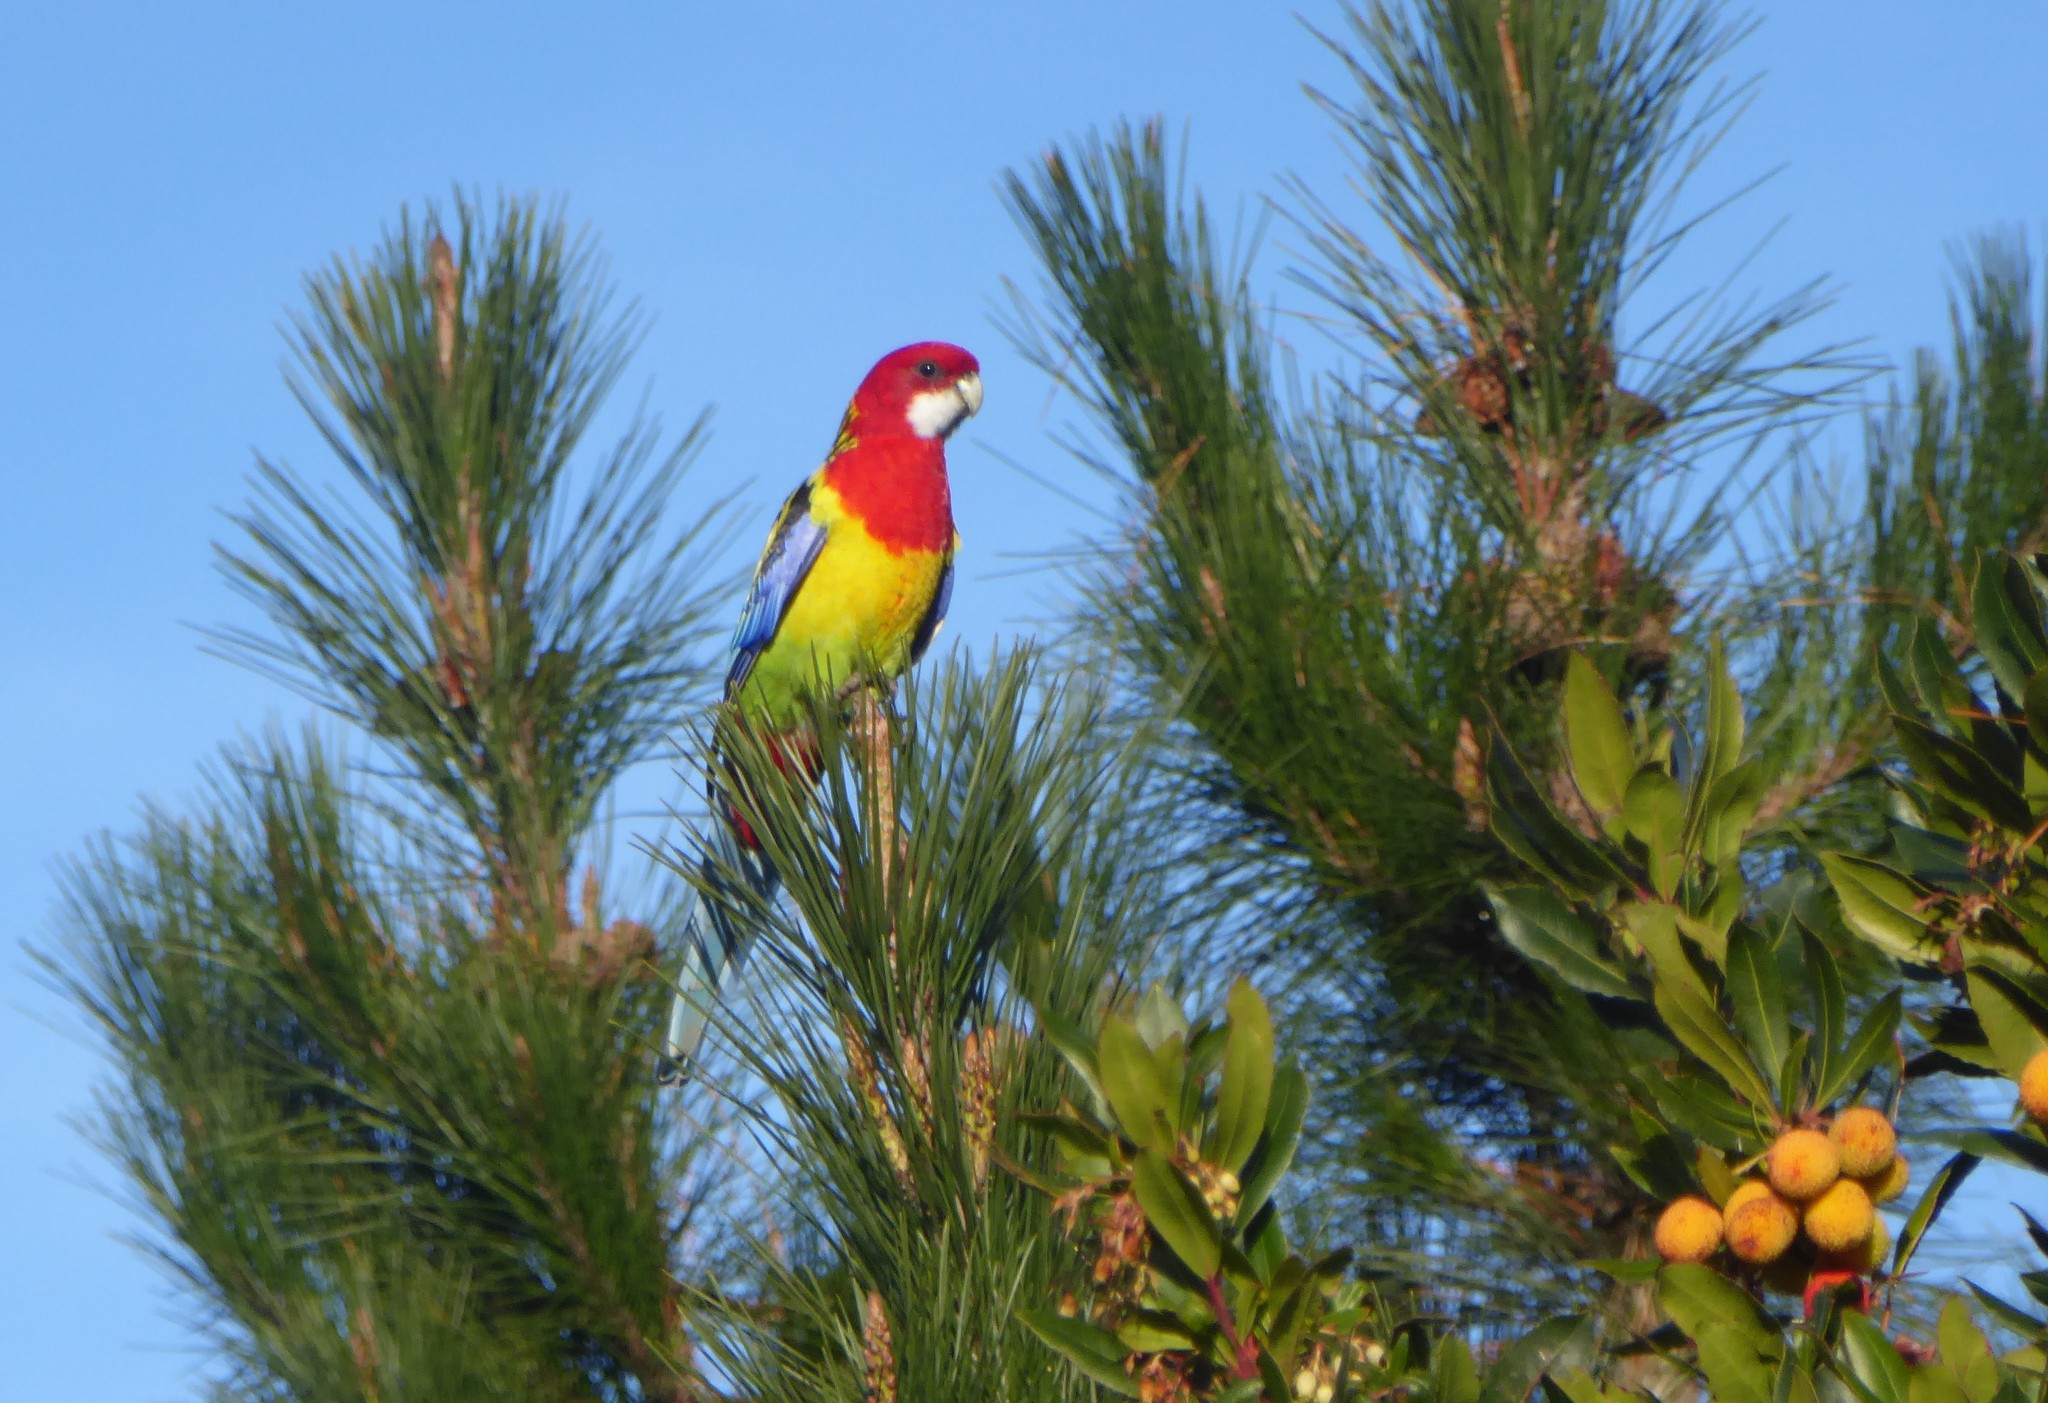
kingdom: Animalia
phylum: Chordata
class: Aves
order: Psittaciformes
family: Psittacidae
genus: Platycercus
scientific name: Platycercus eximius
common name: Eastern rosella
